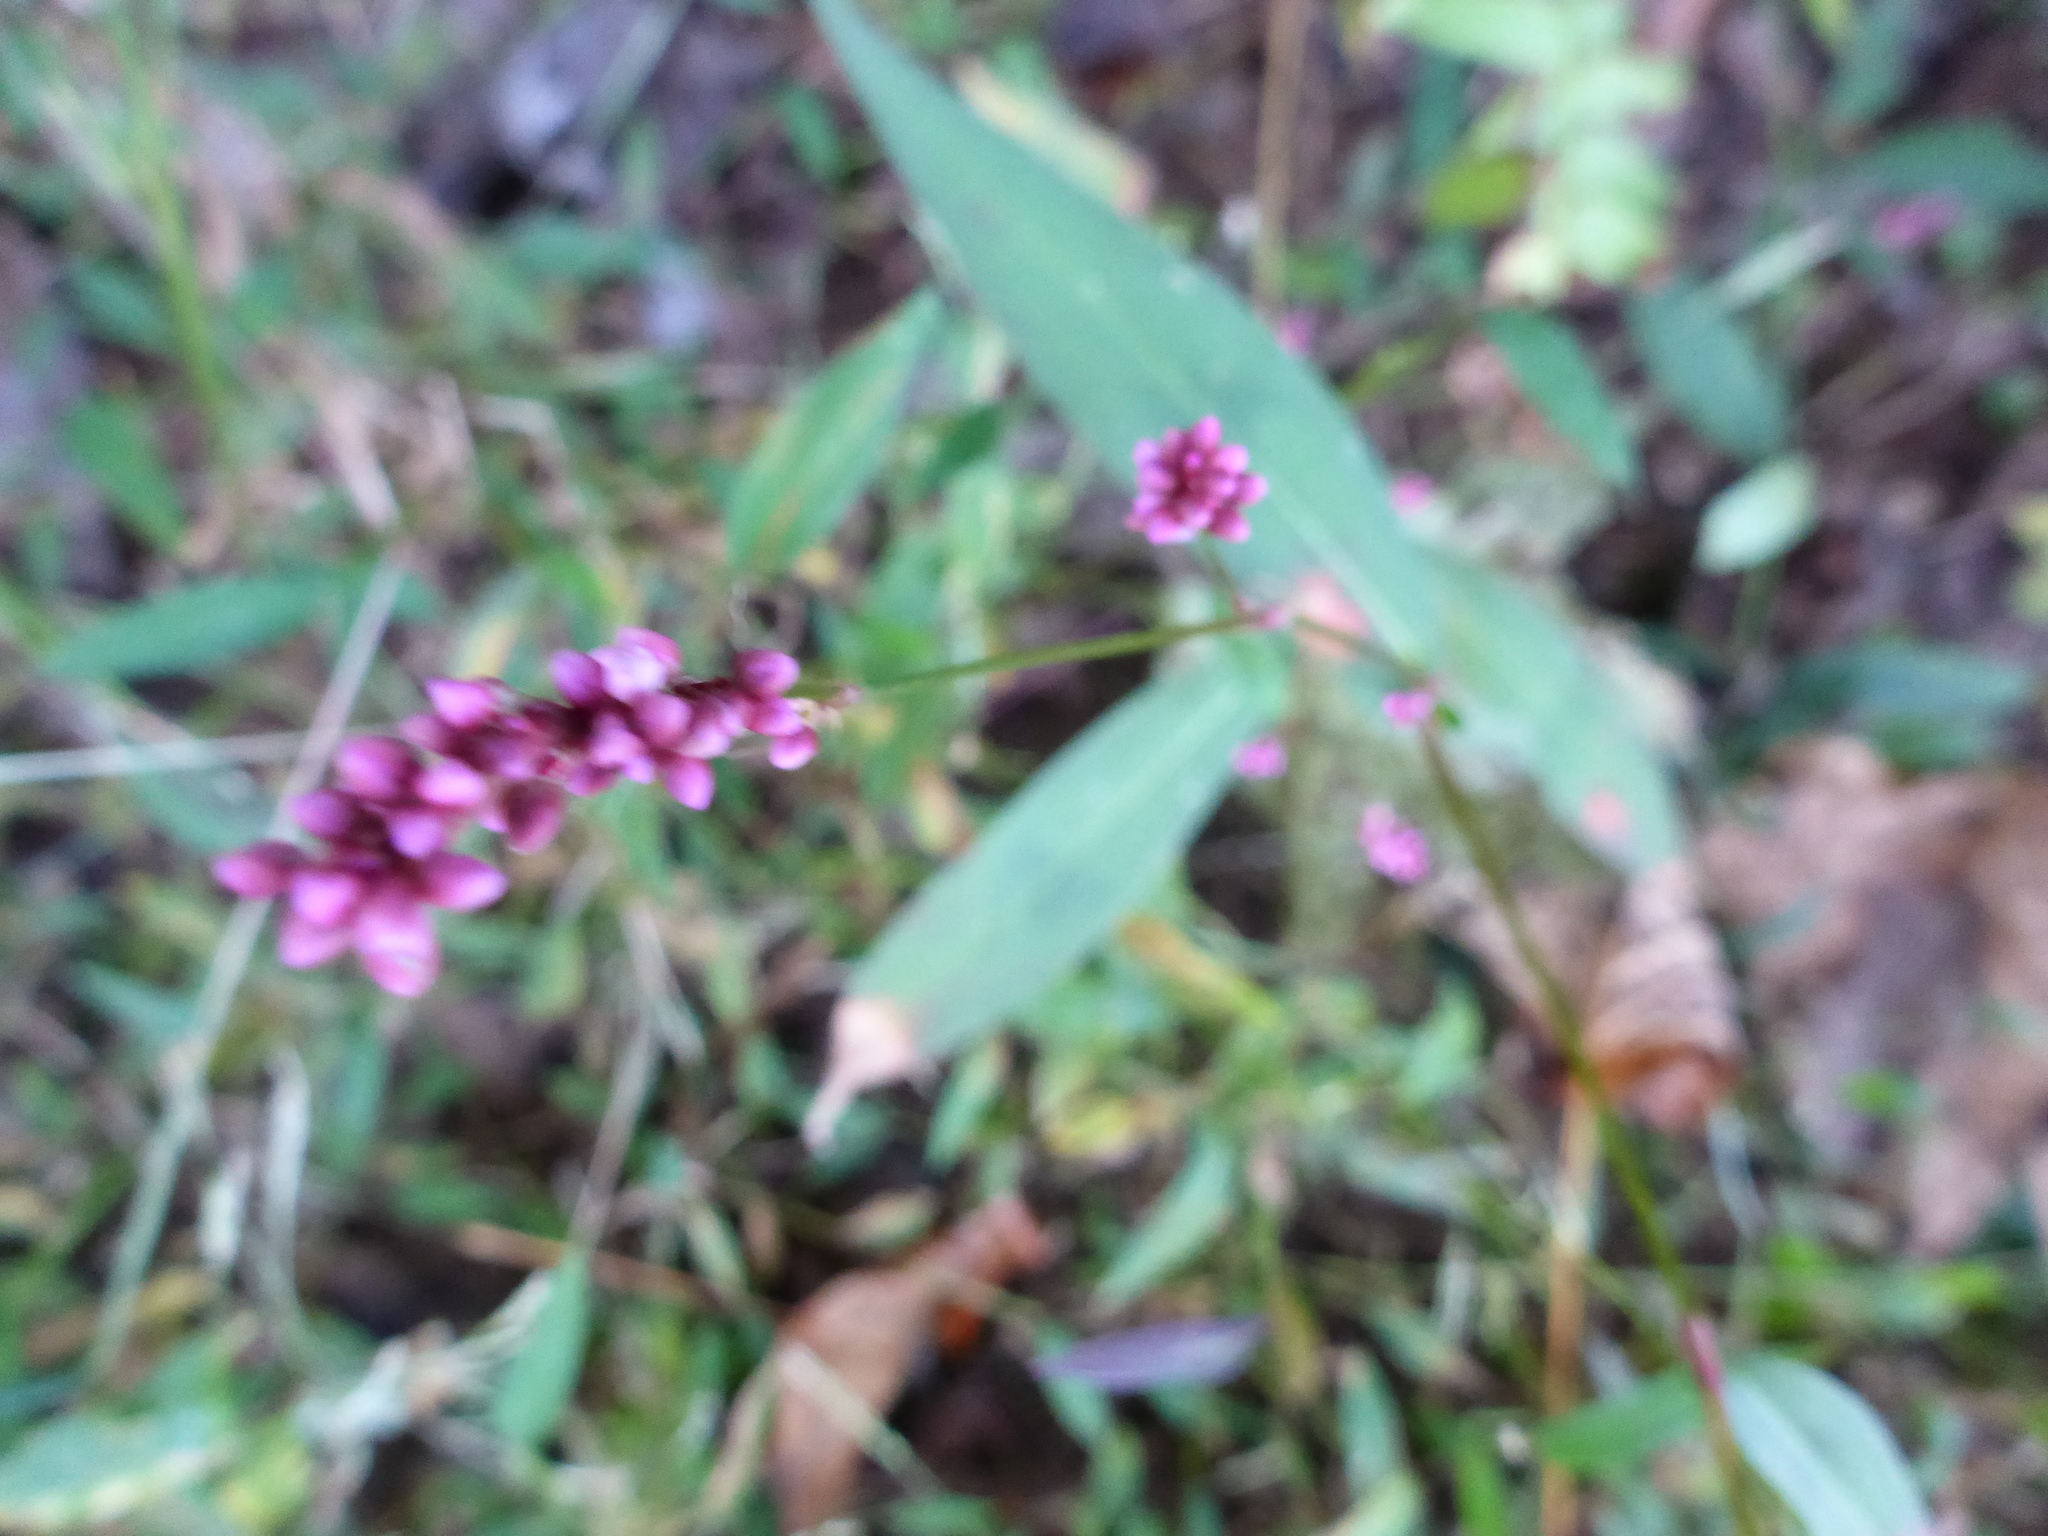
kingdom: Plantae
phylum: Tracheophyta
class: Magnoliopsida
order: Caryophyllales
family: Polygonaceae
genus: Persicaria
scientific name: Persicaria longiseta
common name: Bristly lady's-thumb
